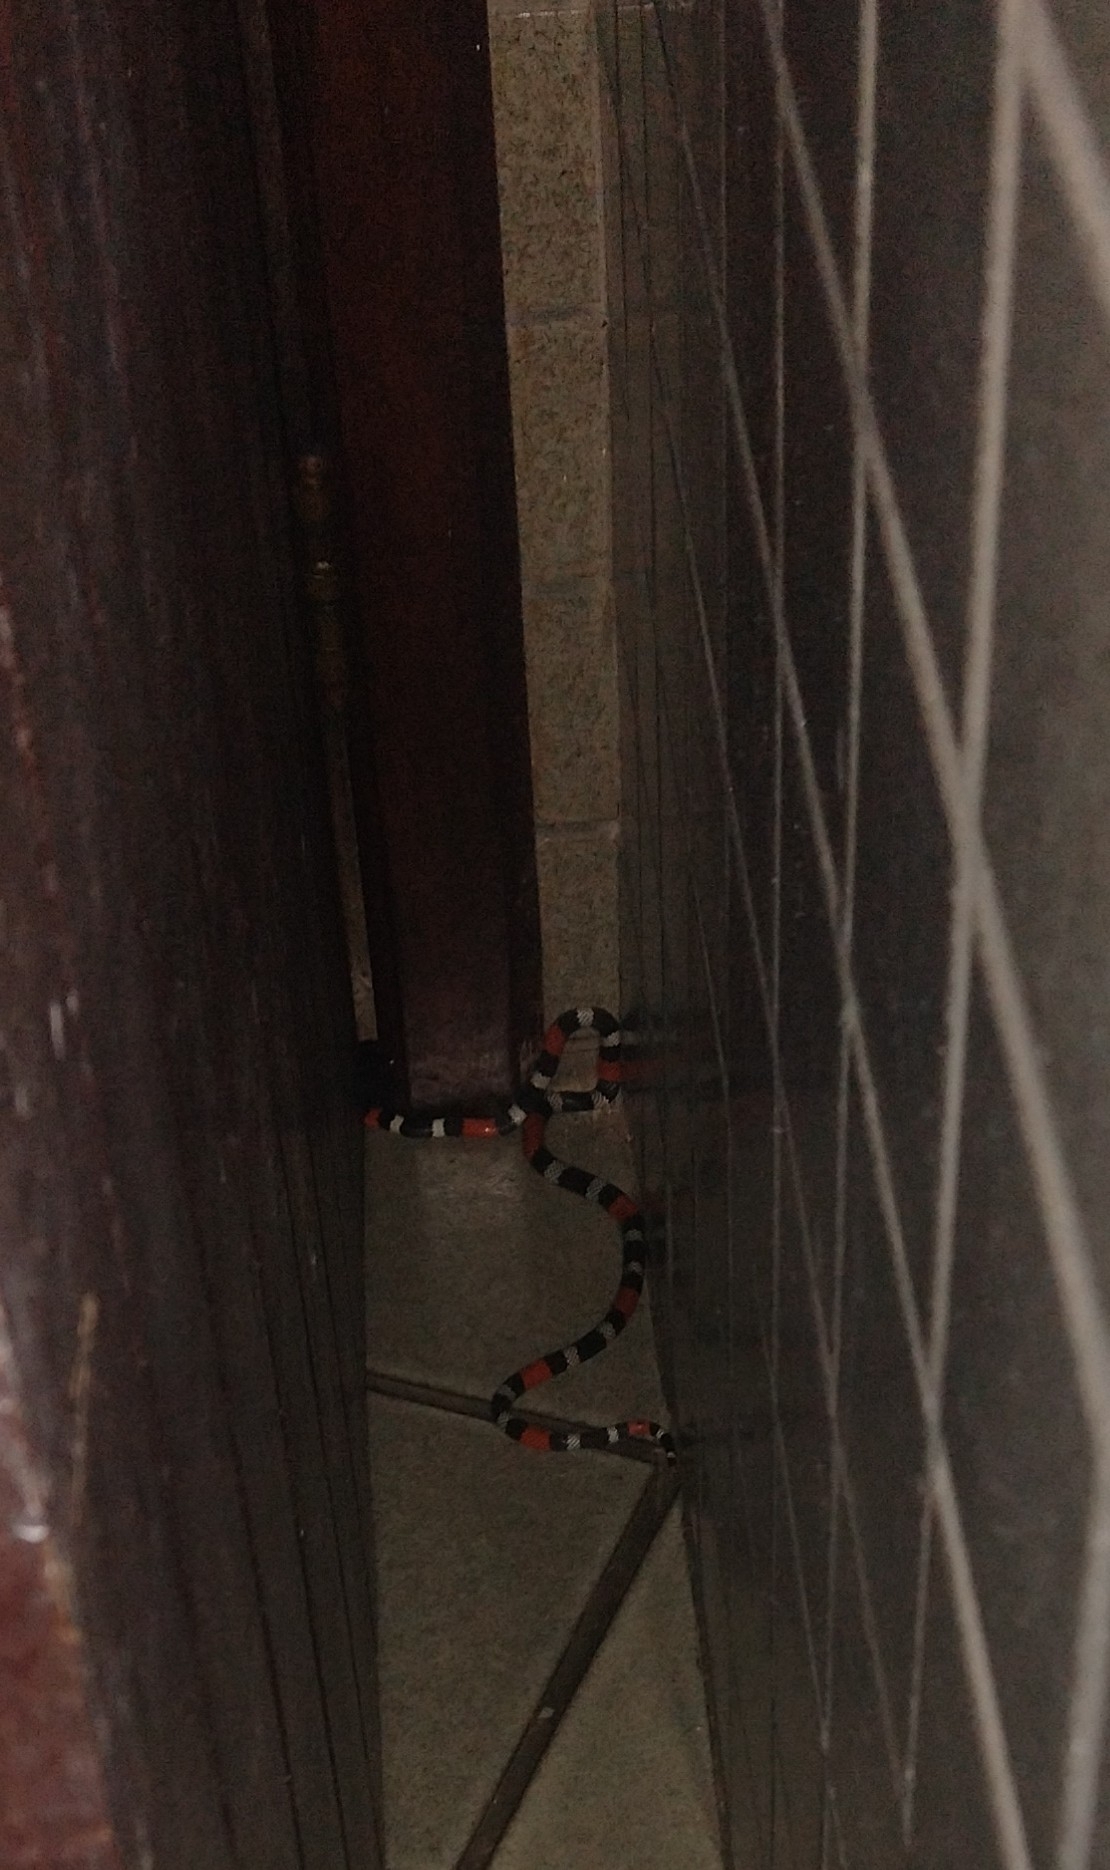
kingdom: Animalia
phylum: Chordata
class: Squamata
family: Elapidae
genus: Micrurus
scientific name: Micrurus ibiboboca
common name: Caatinga coral snake
